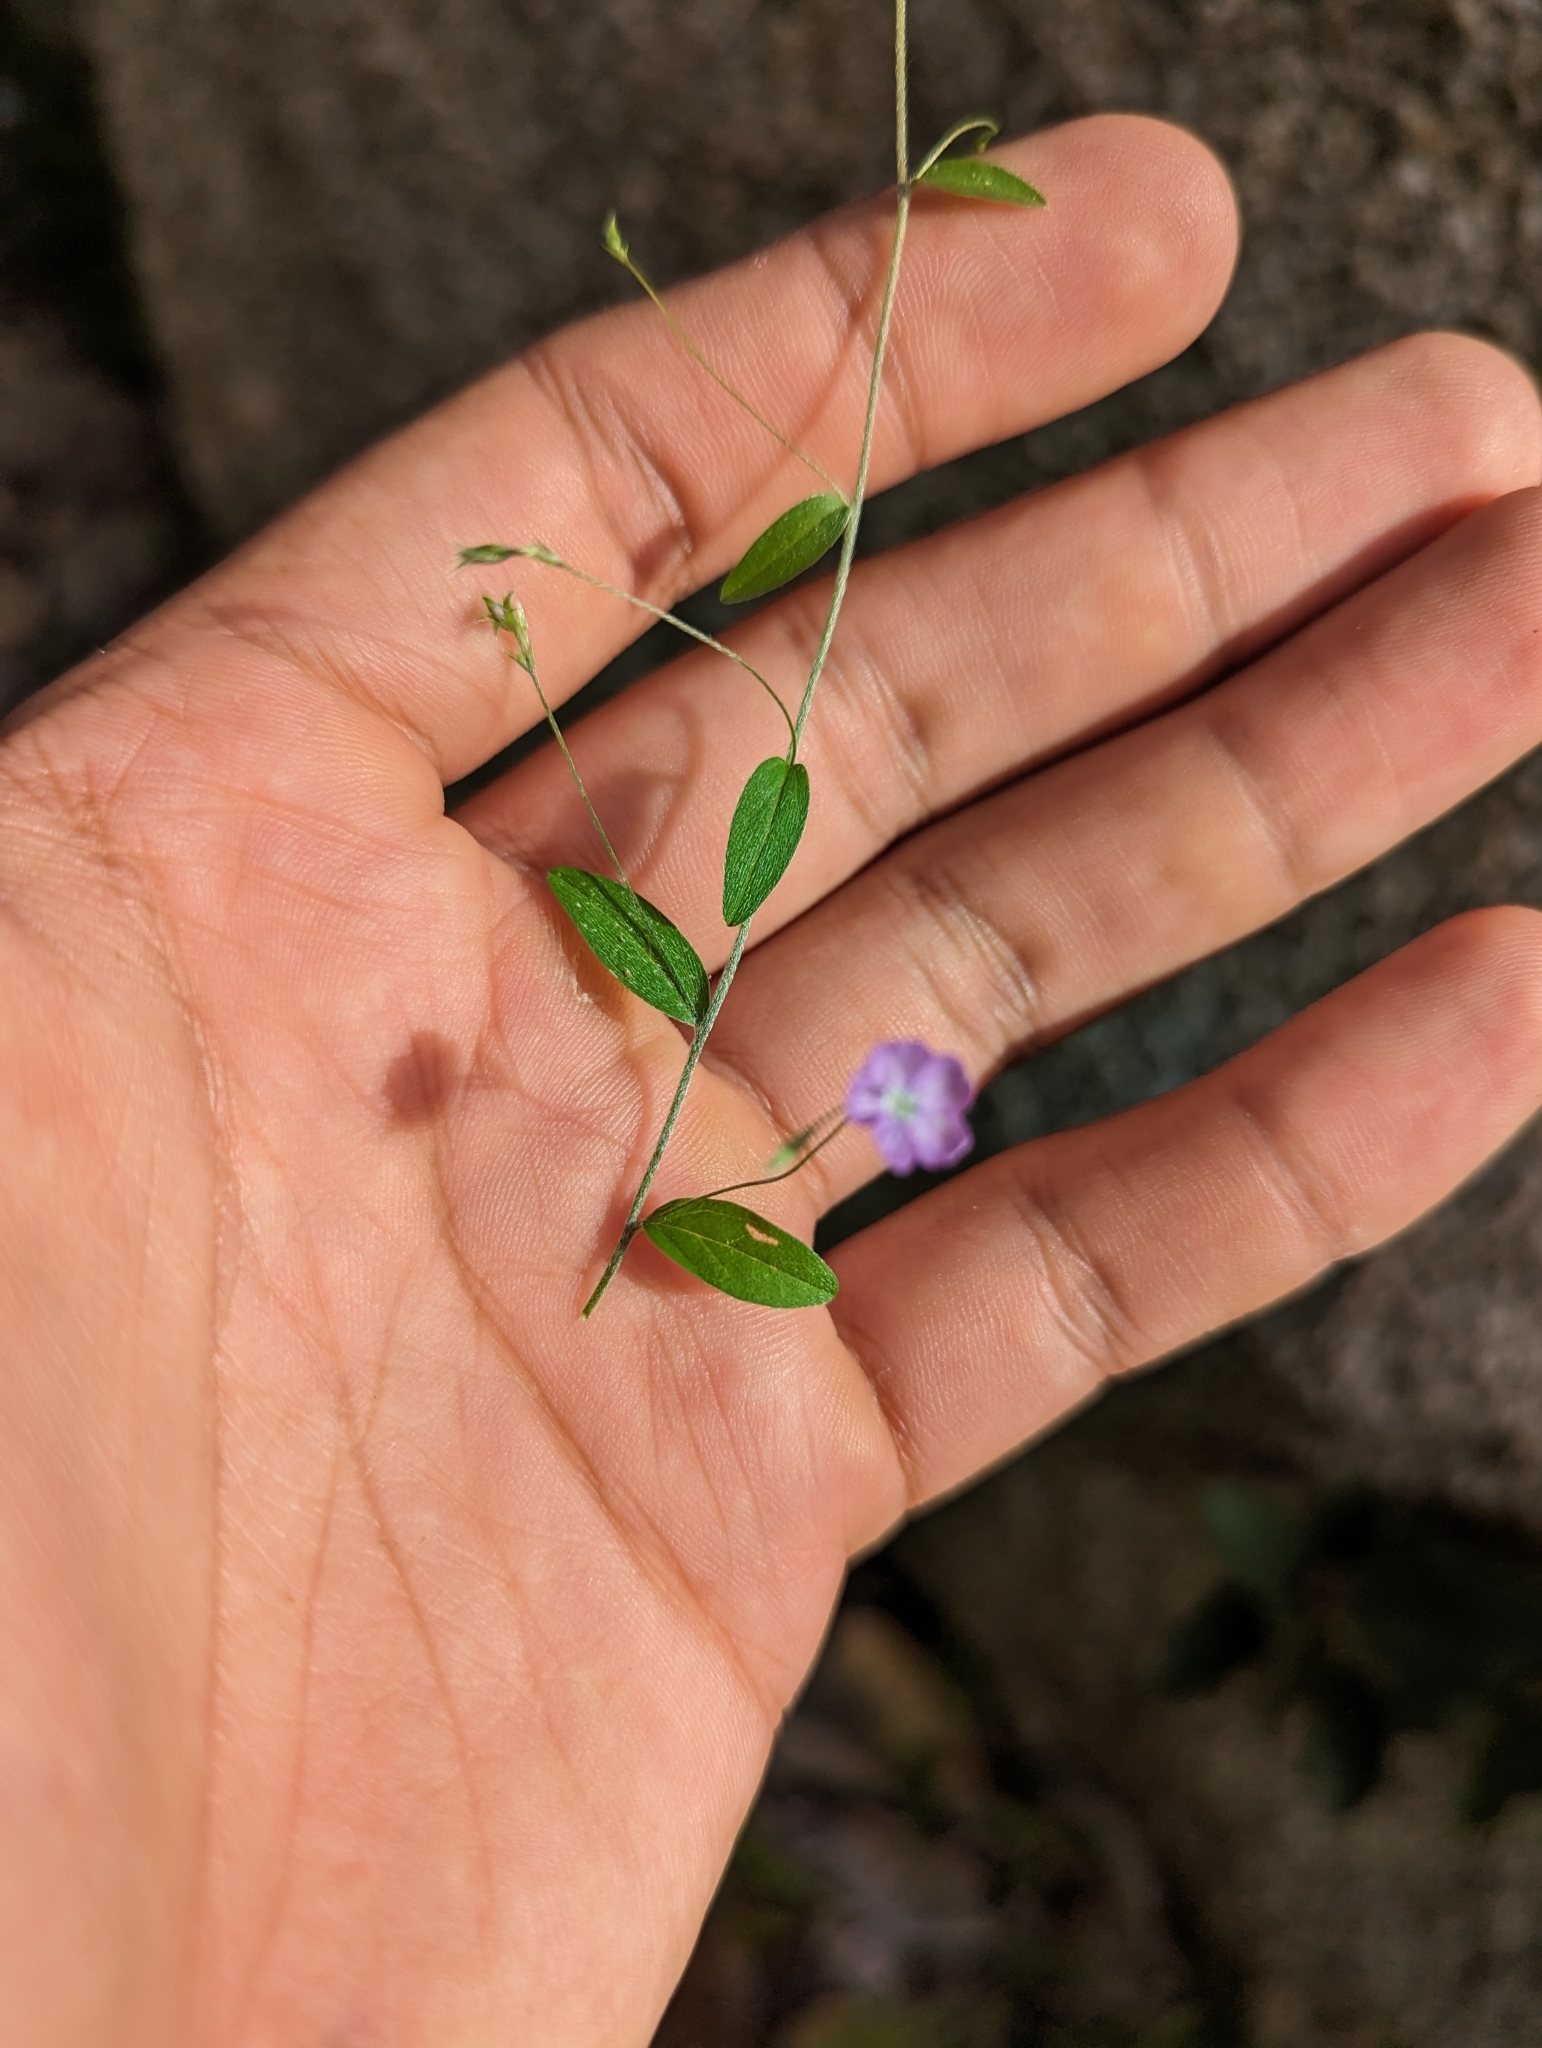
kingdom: Plantae
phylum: Tracheophyta
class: Magnoliopsida
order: Solanales
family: Convolvulaceae
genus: Evolvulus
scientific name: Evolvulus alsinoides
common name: Slender dwarf morning-glory
